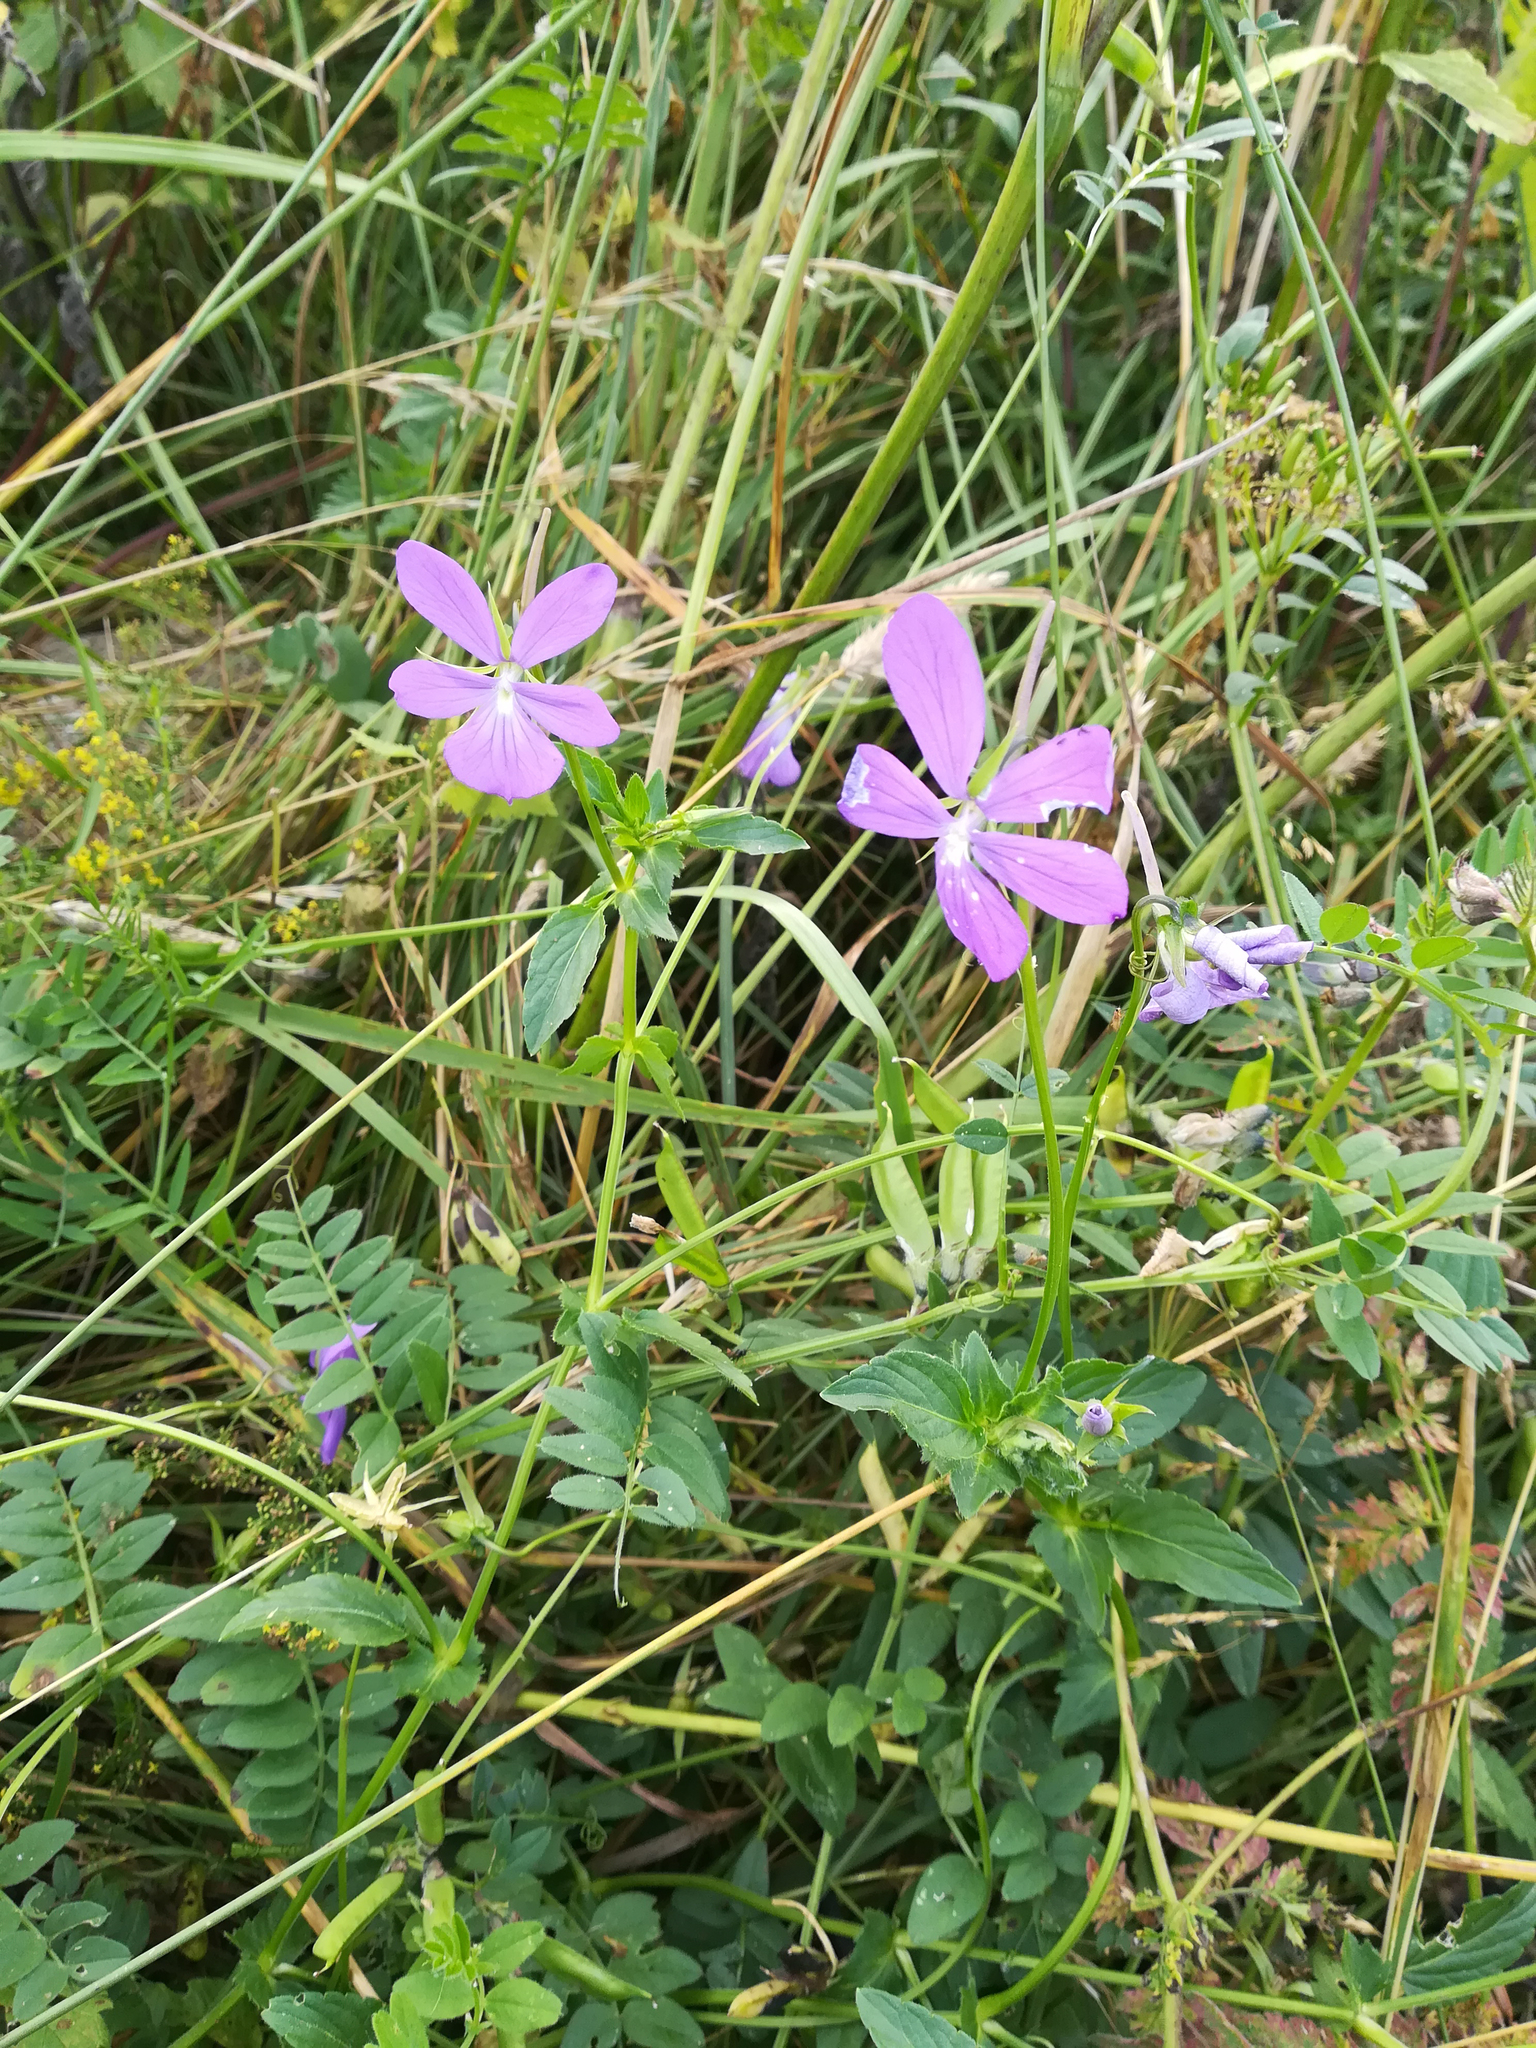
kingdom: Plantae
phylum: Tracheophyta
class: Magnoliopsida
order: Malpighiales
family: Violaceae
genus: Viola
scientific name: Viola cornuta
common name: Horned pansy
